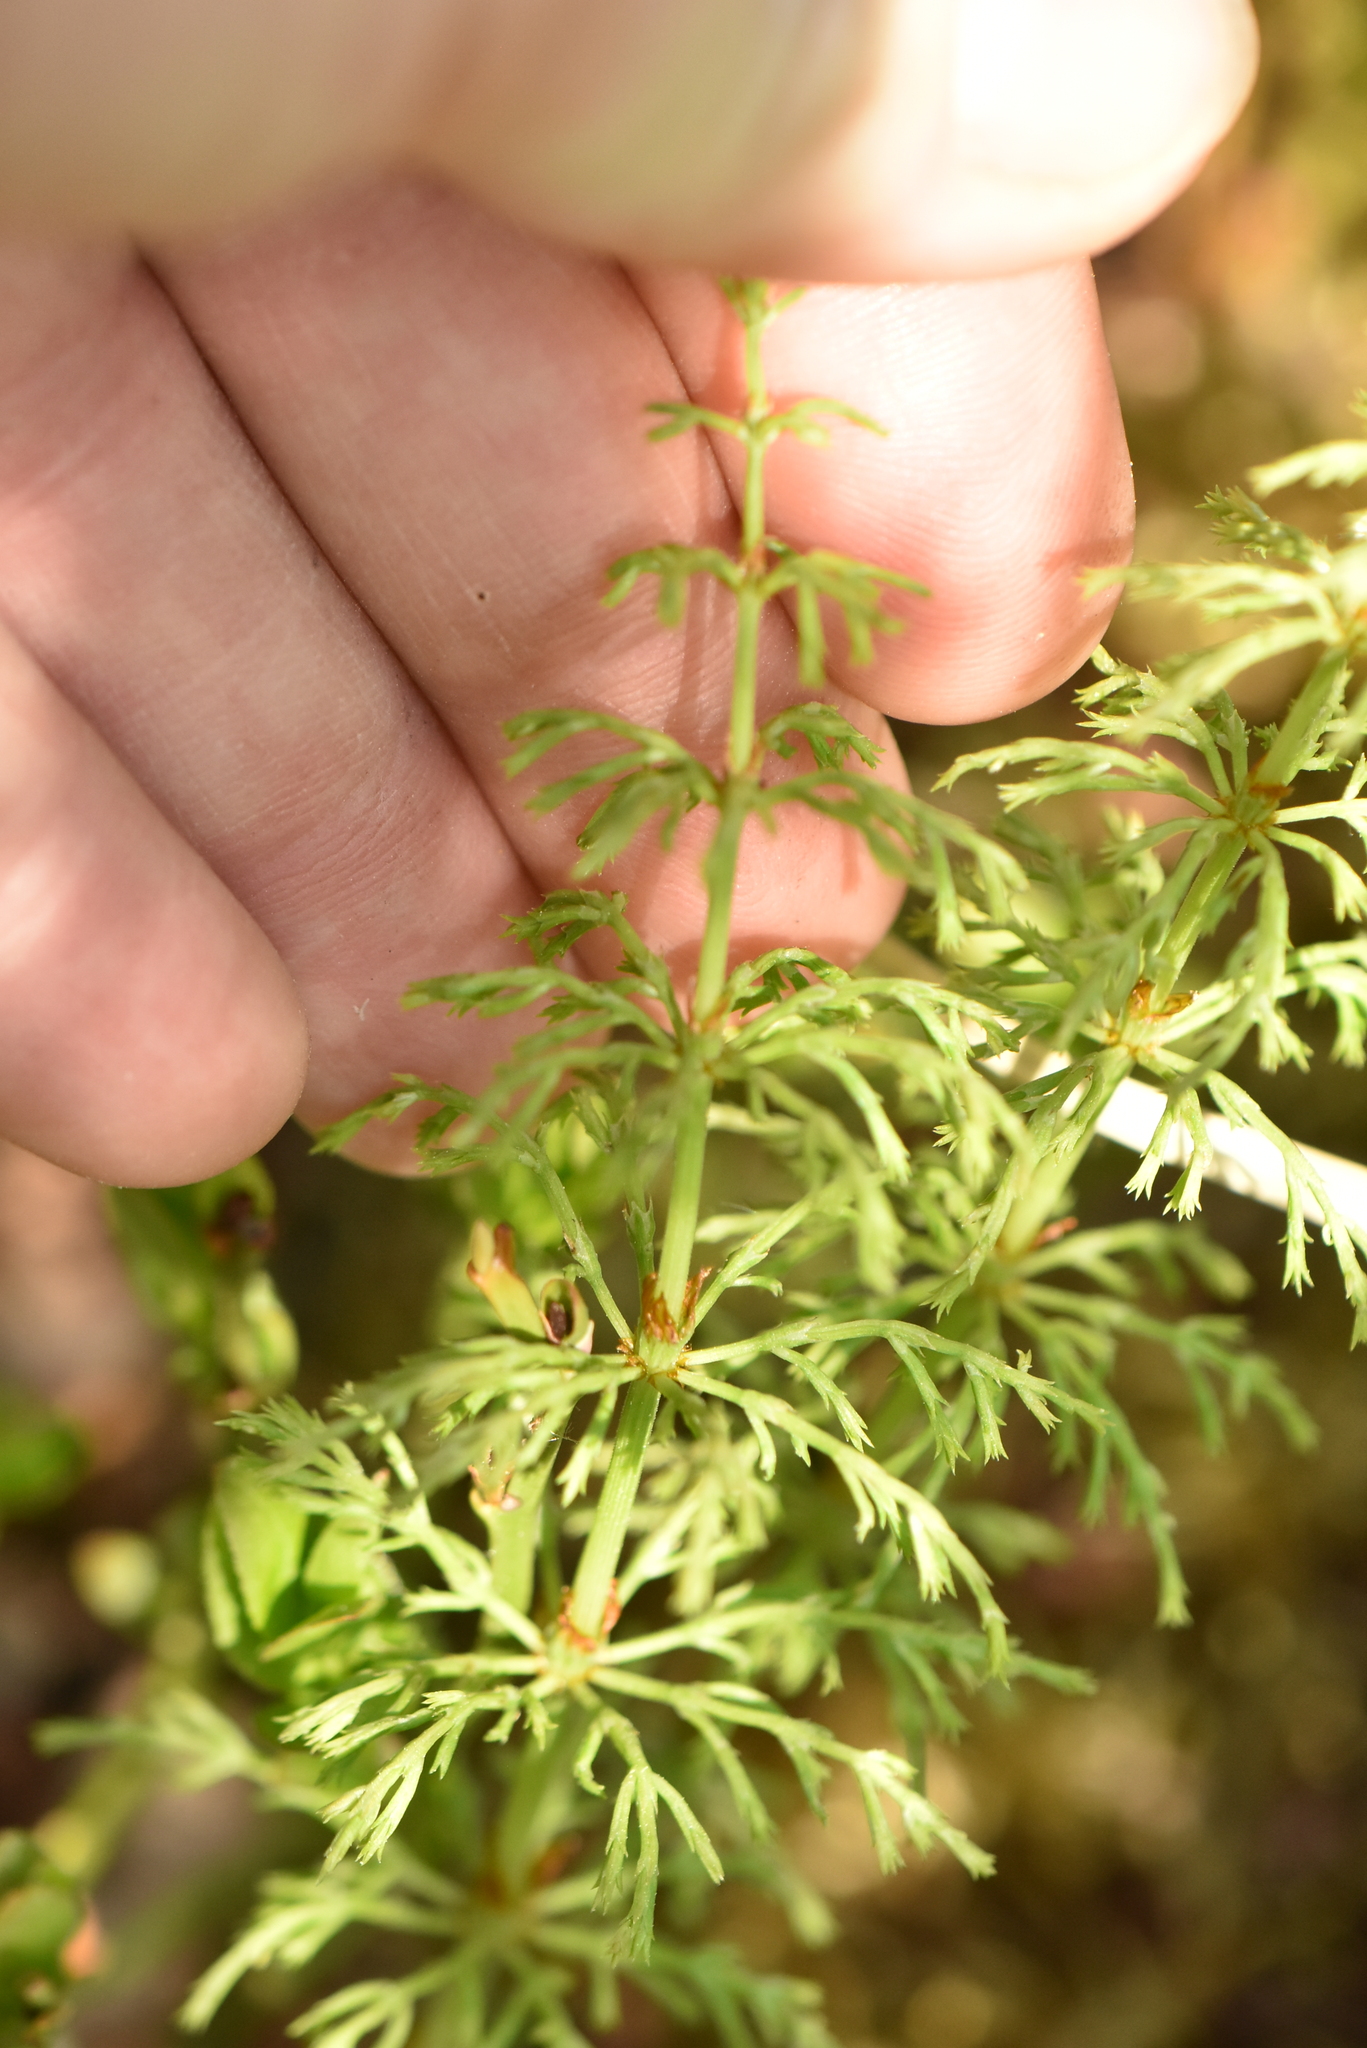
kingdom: Plantae
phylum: Tracheophyta
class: Polypodiopsida
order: Equisetales
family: Equisetaceae
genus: Equisetum
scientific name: Equisetum sylvaticum
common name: Wood horsetail
